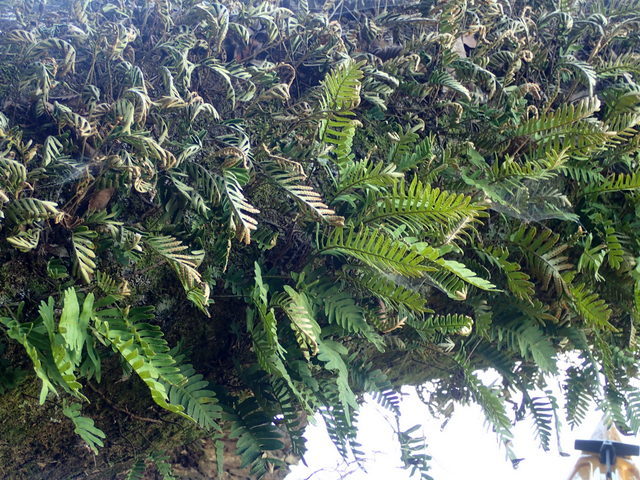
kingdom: Plantae
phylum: Tracheophyta
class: Polypodiopsida
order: Polypodiales
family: Polypodiaceae
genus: Pleopeltis
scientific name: Pleopeltis michauxiana
